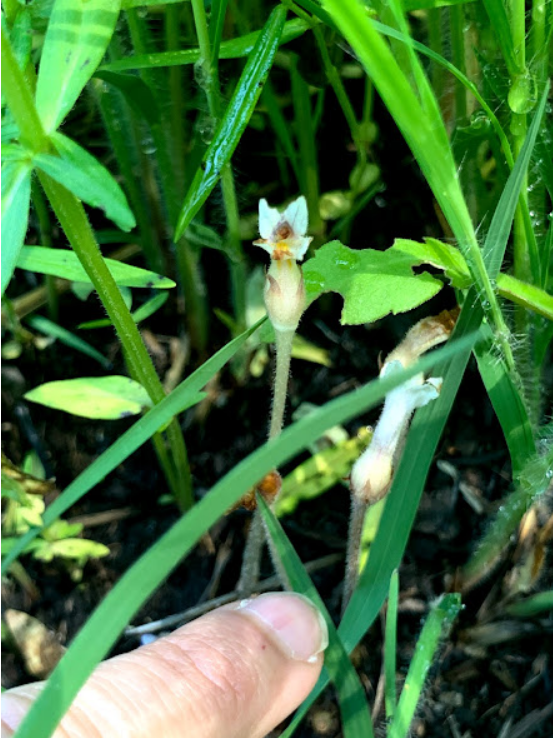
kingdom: Plantae
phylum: Tracheophyta
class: Magnoliopsida
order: Lamiales
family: Orobanchaceae
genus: Aphyllon
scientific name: Aphyllon uniflorum
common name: One-flowered broomrape
